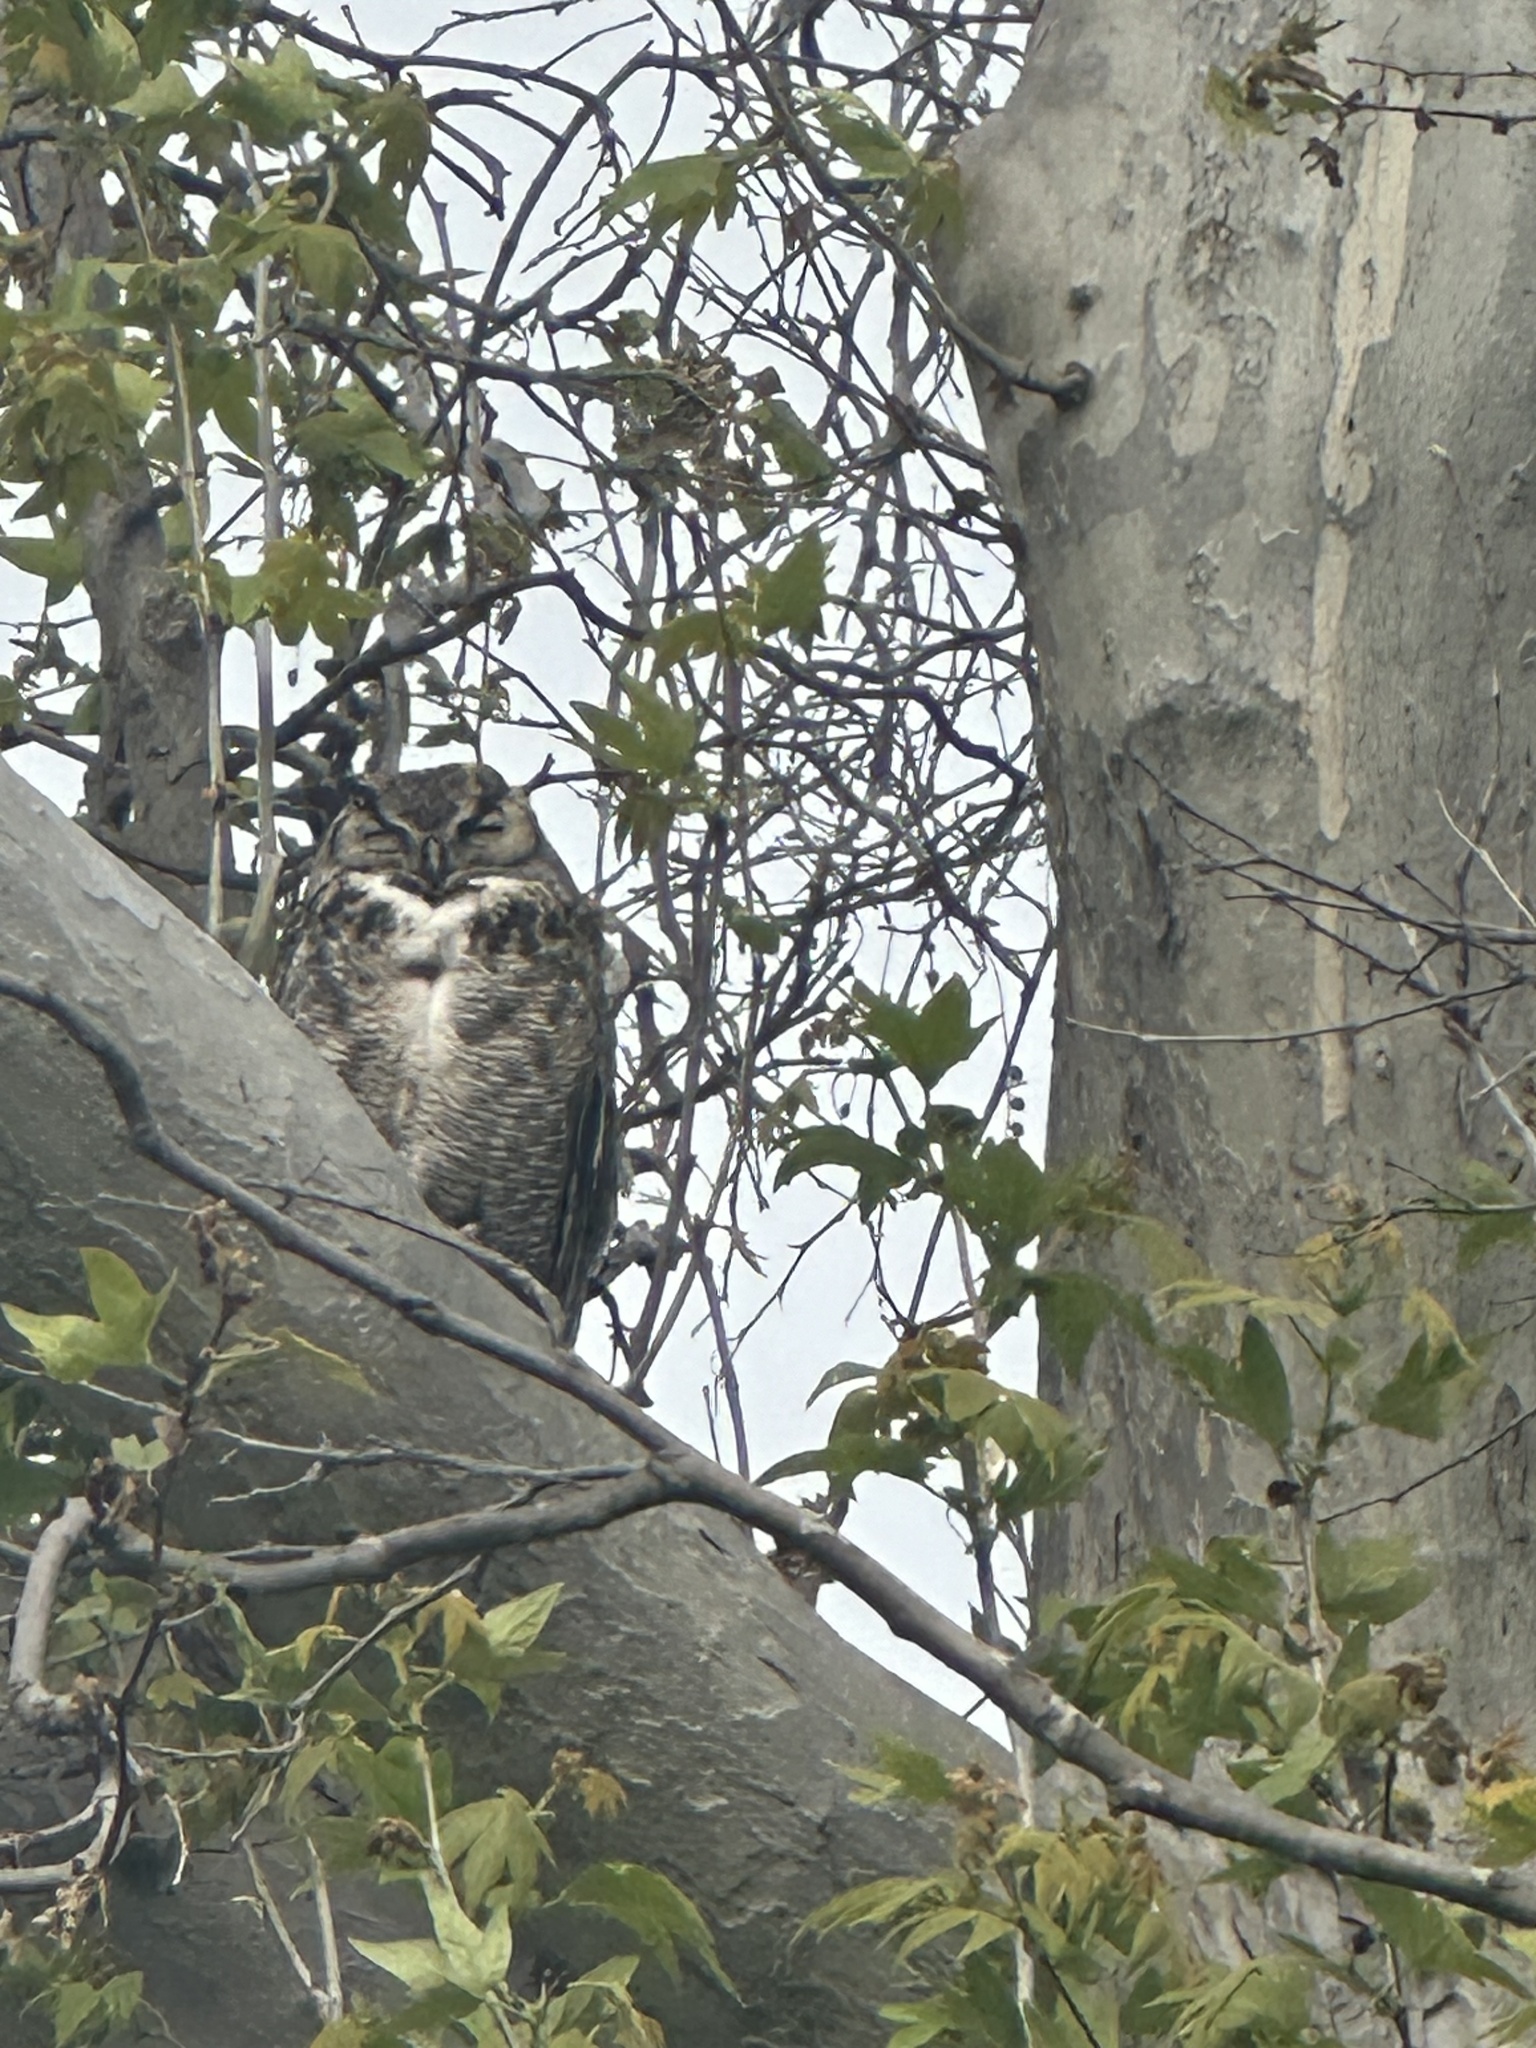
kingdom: Animalia
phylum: Chordata
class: Aves
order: Strigiformes
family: Strigidae
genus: Bubo
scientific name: Bubo virginianus
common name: Great horned owl
